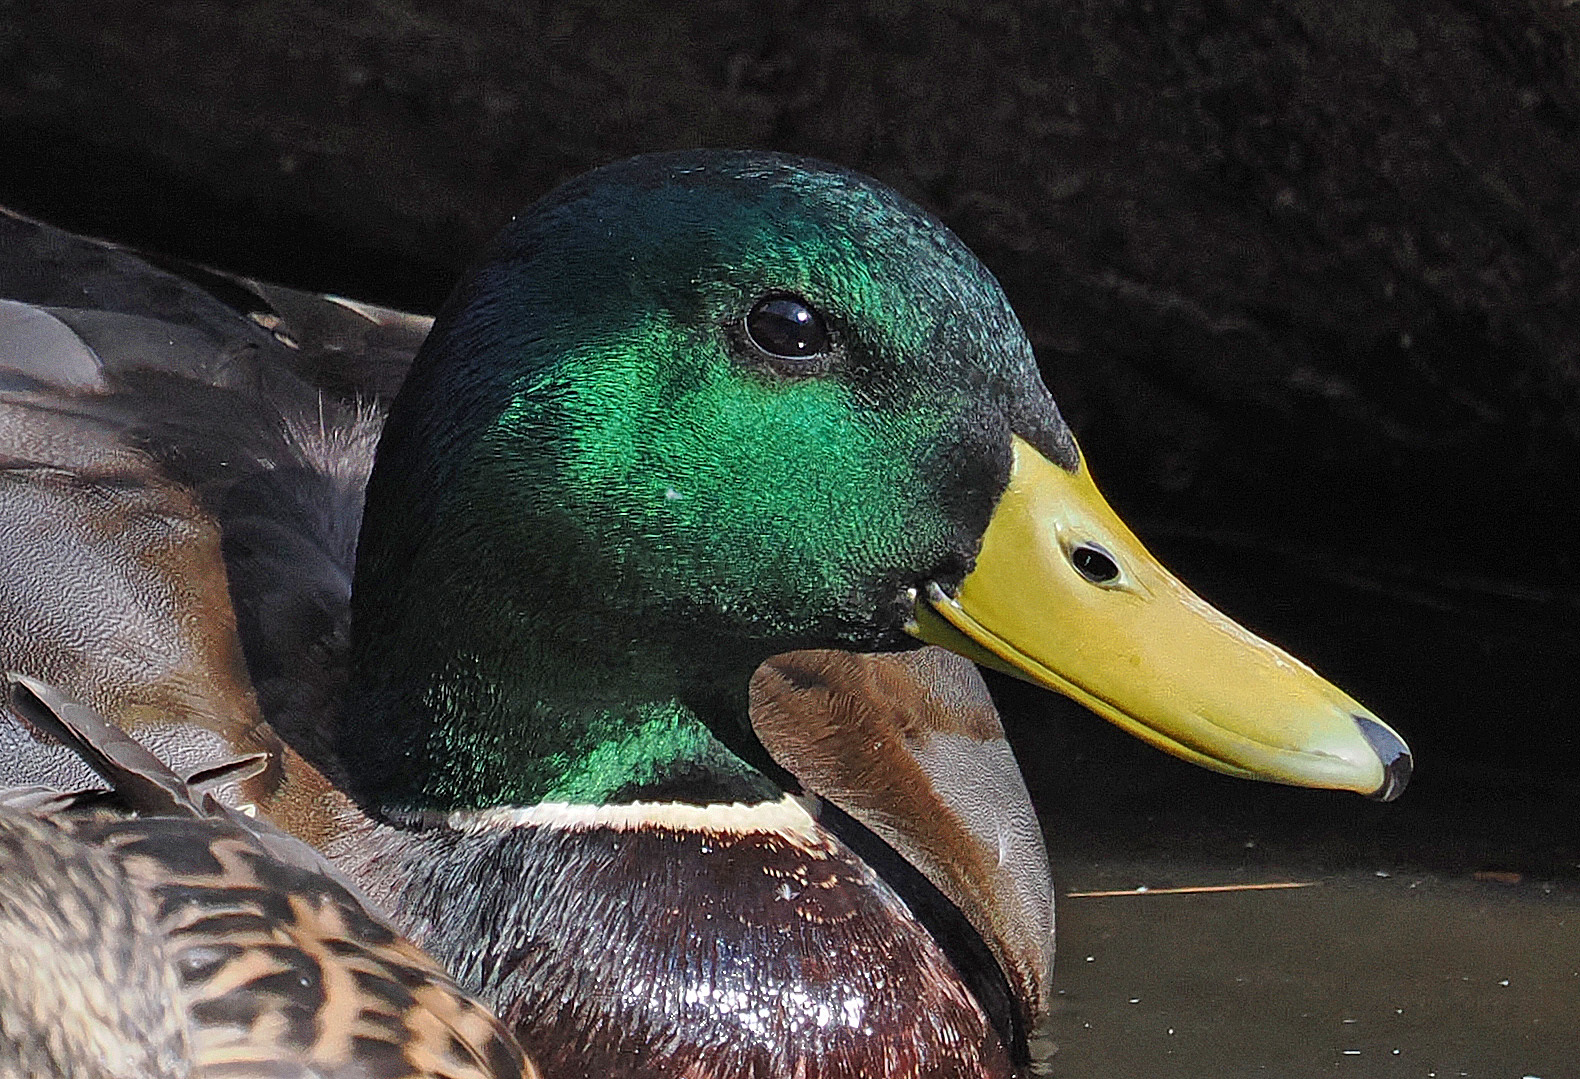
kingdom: Animalia
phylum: Chordata
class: Aves
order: Anseriformes
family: Anatidae
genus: Anas
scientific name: Anas platyrhynchos
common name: Mallard
